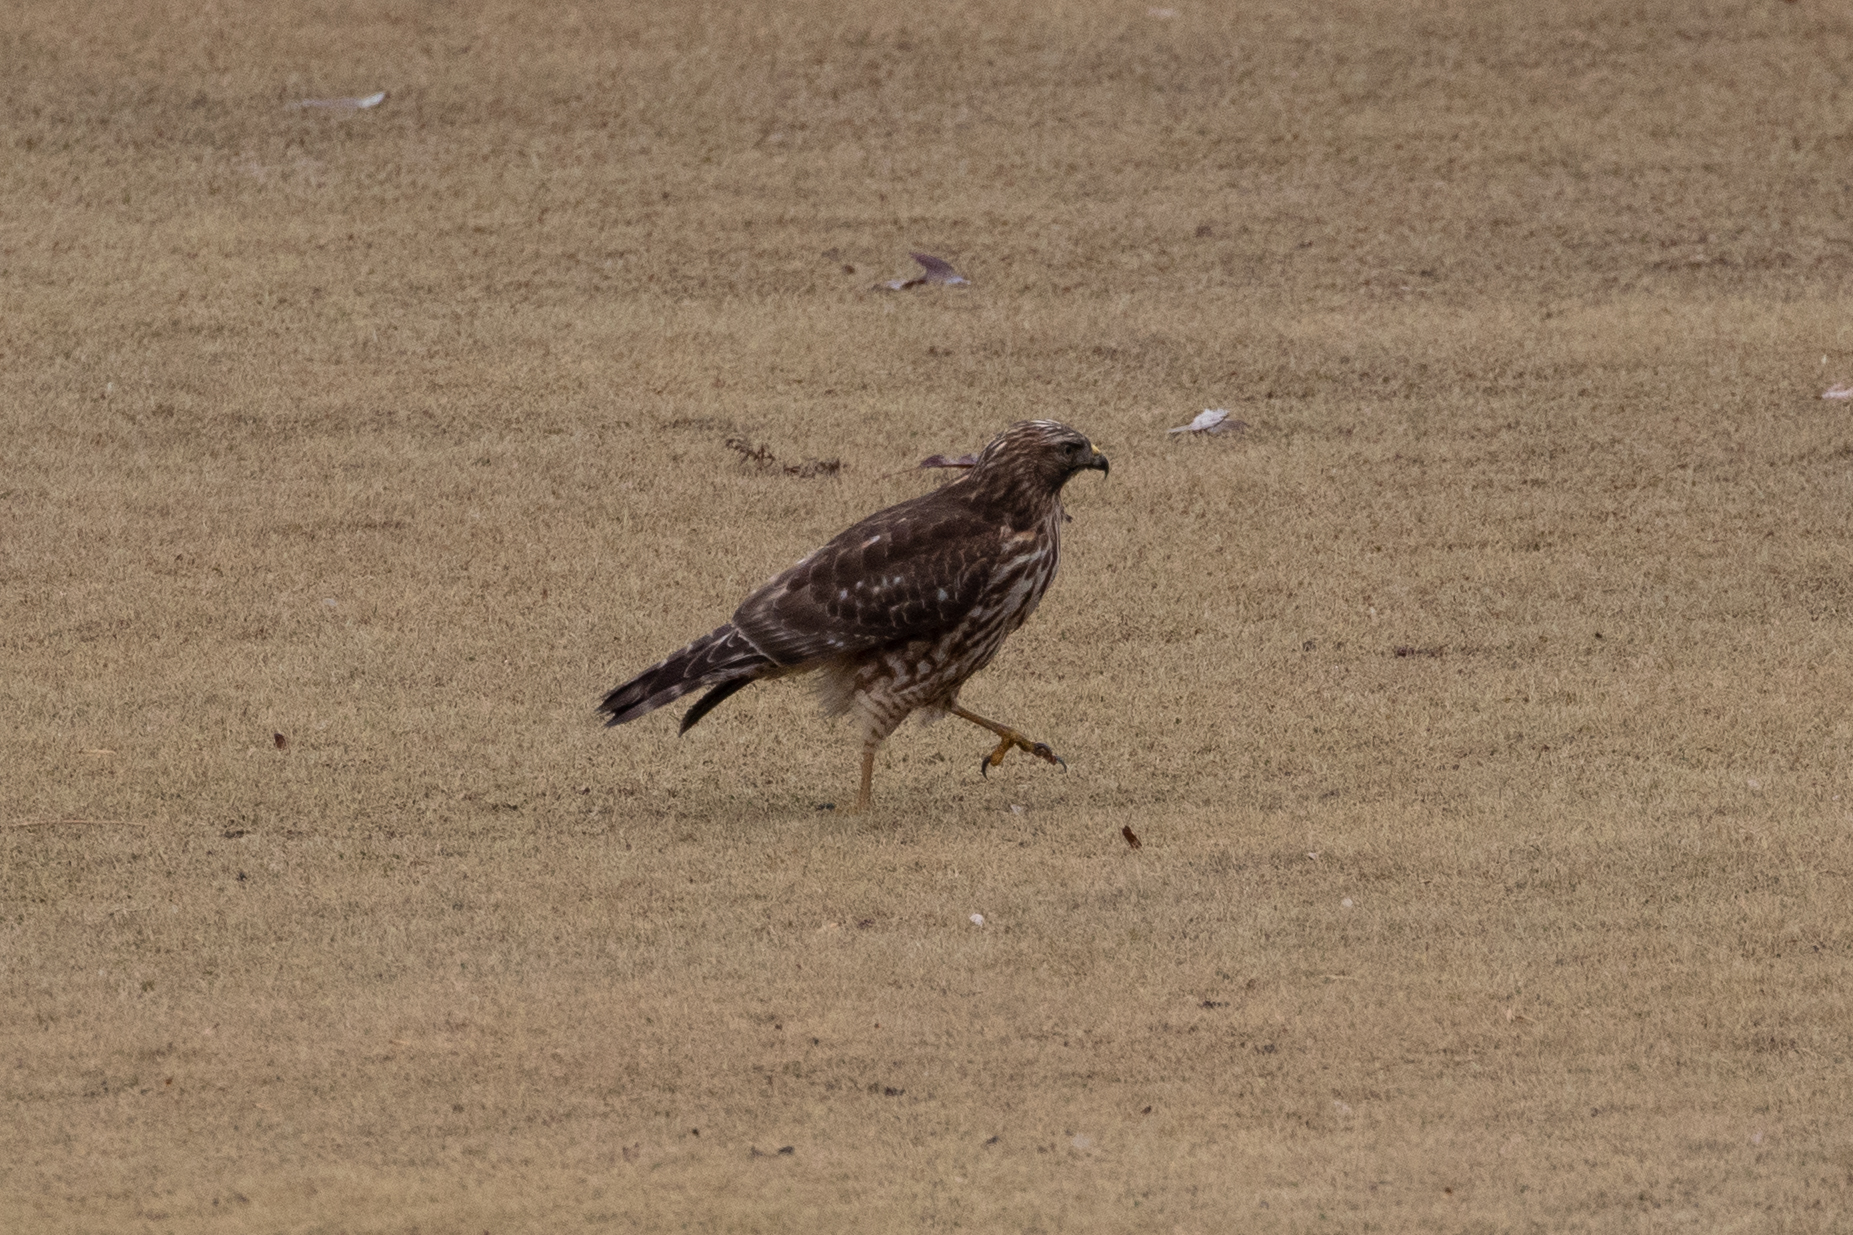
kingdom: Animalia
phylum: Chordata
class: Aves
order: Accipitriformes
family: Accipitridae
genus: Buteo
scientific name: Buteo lineatus
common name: Red-shouldered hawk
